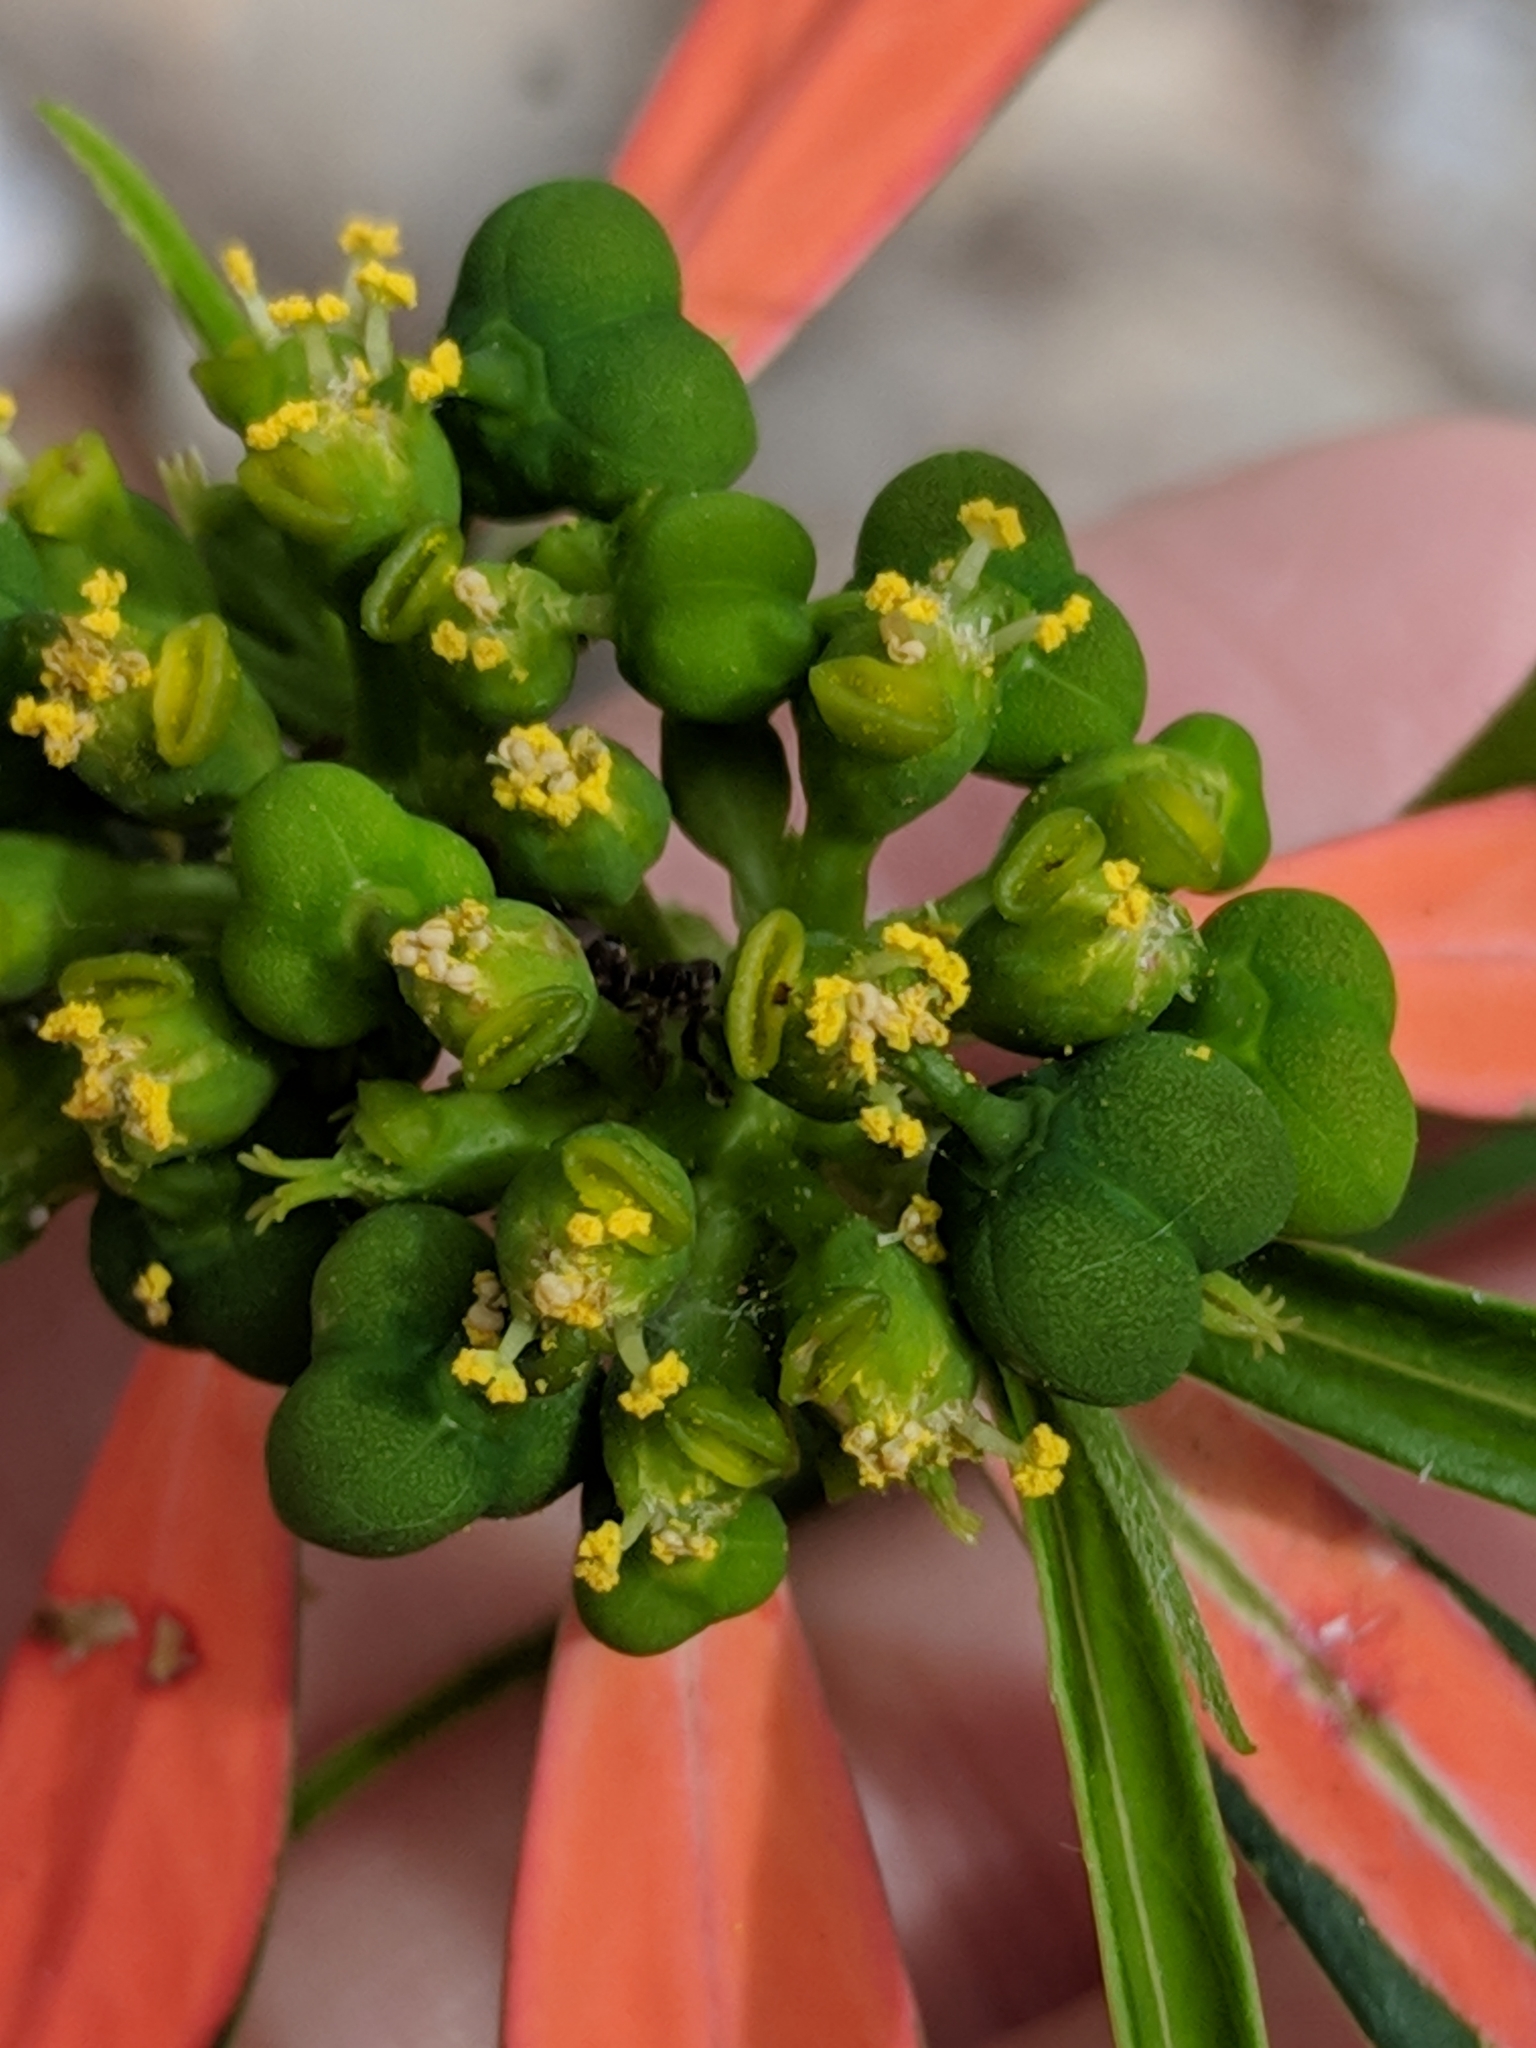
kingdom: Plantae
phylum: Tracheophyta
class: Magnoliopsida
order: Malpighiales
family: Euphorbiaceae
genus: Euphorbia
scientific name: Euphorbia heterophylla
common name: Mexican fireplant
